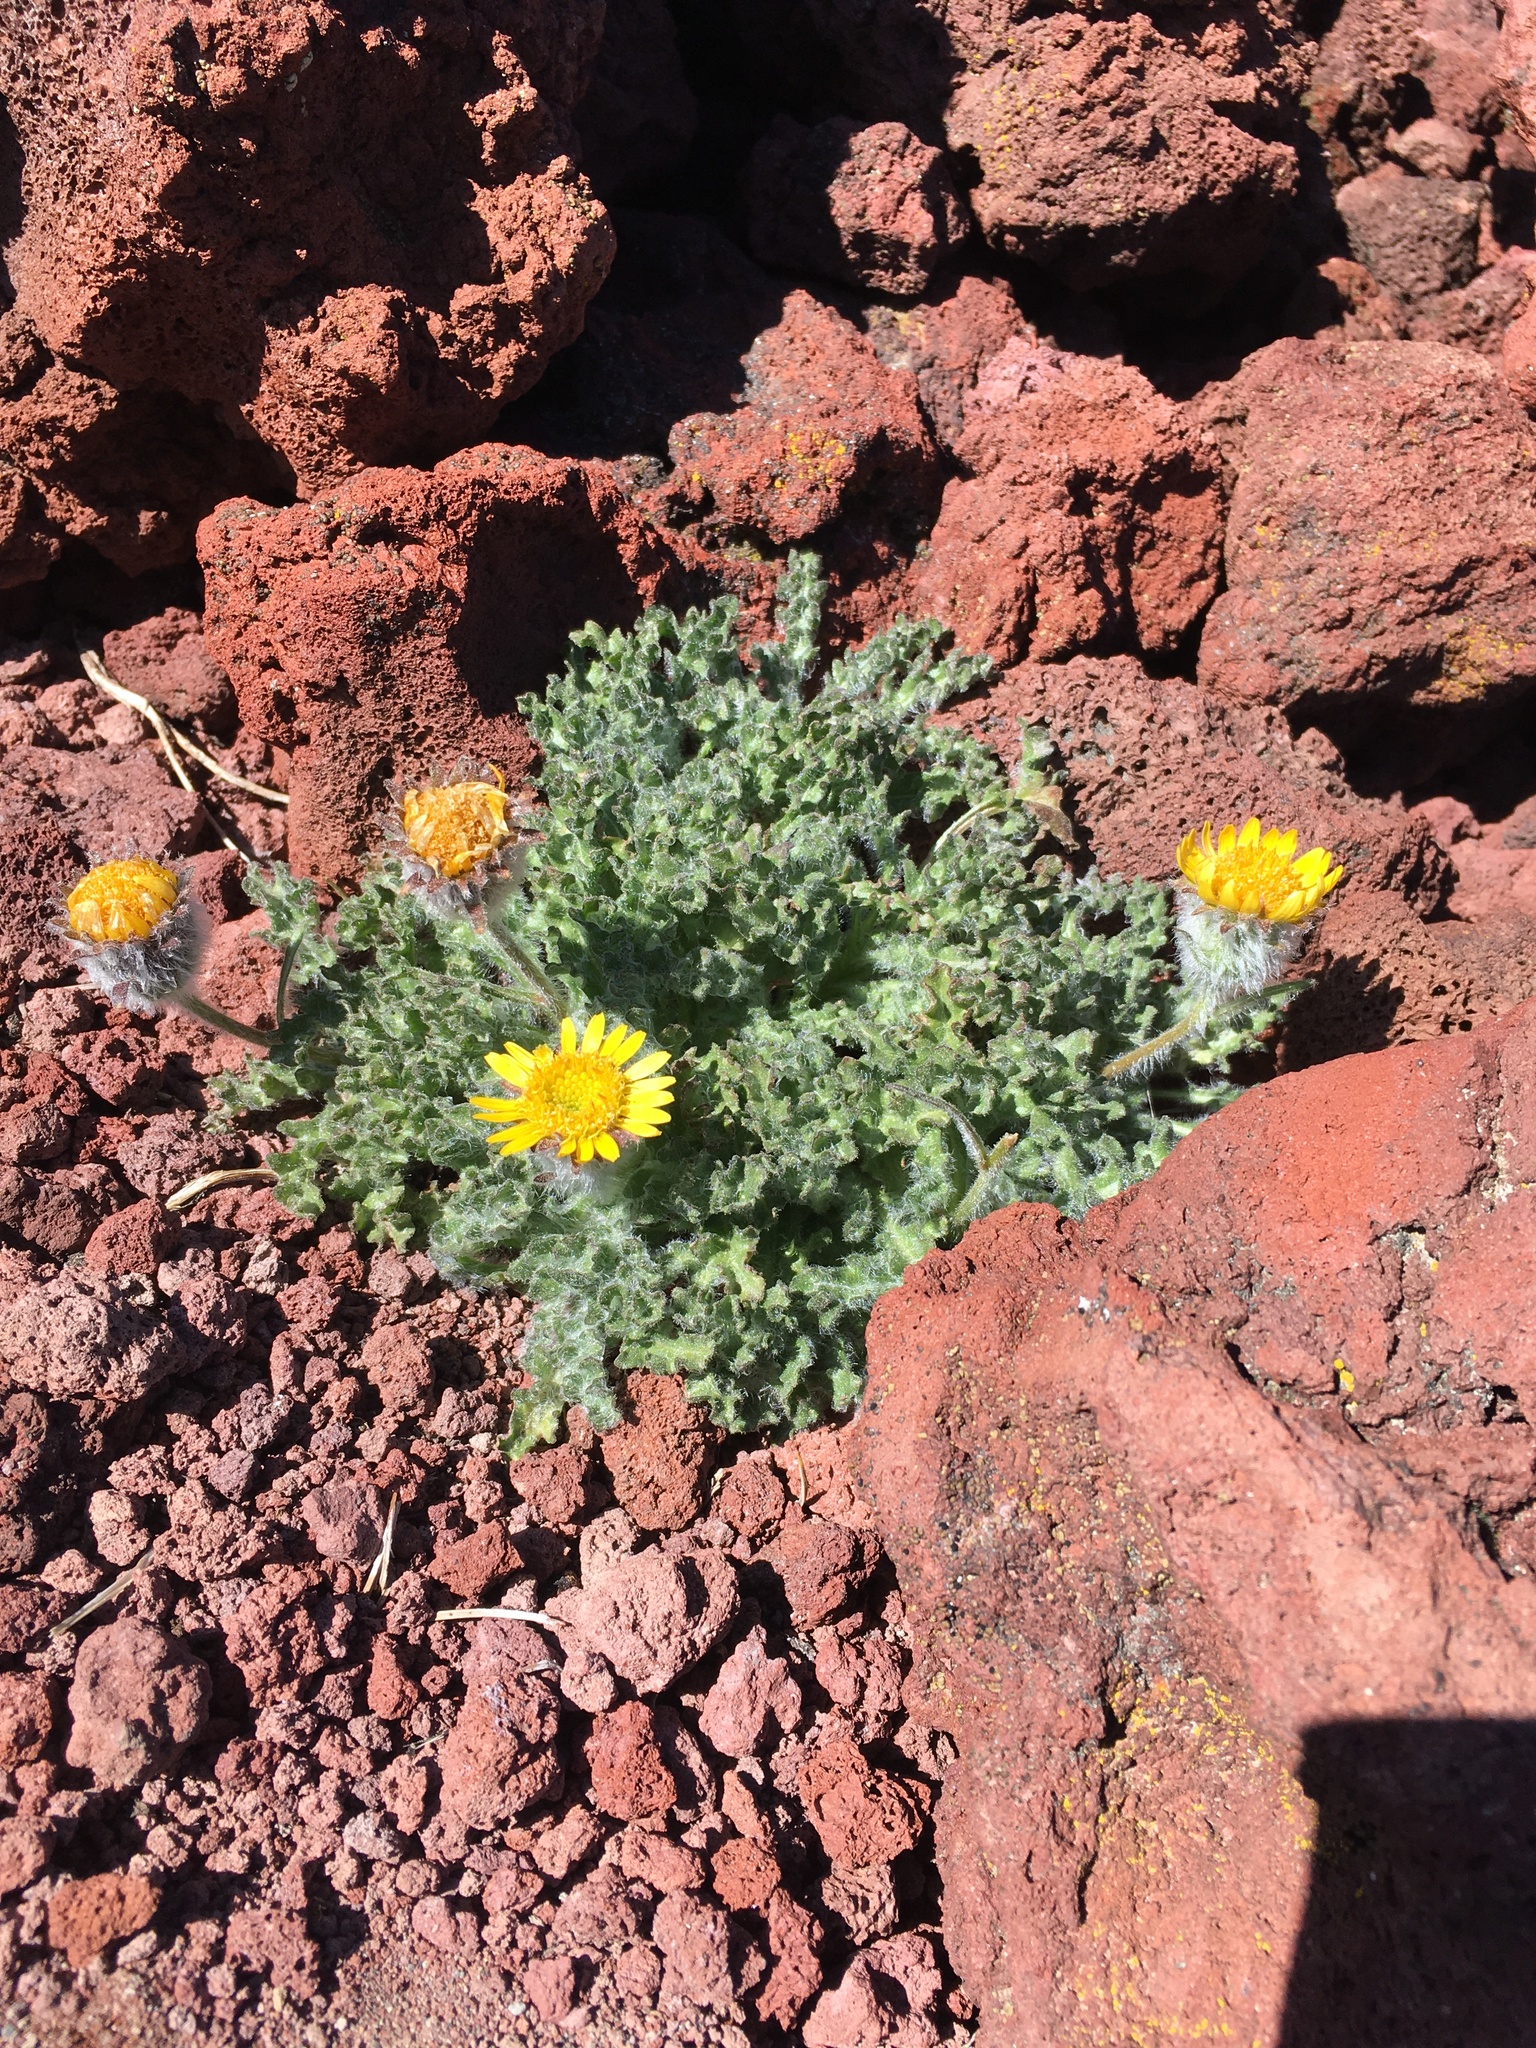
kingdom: Plantae
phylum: Tracheophyta
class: Magnoliopsida
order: Asterales
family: Asteraceae
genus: Hulsea
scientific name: Hulsea nana
